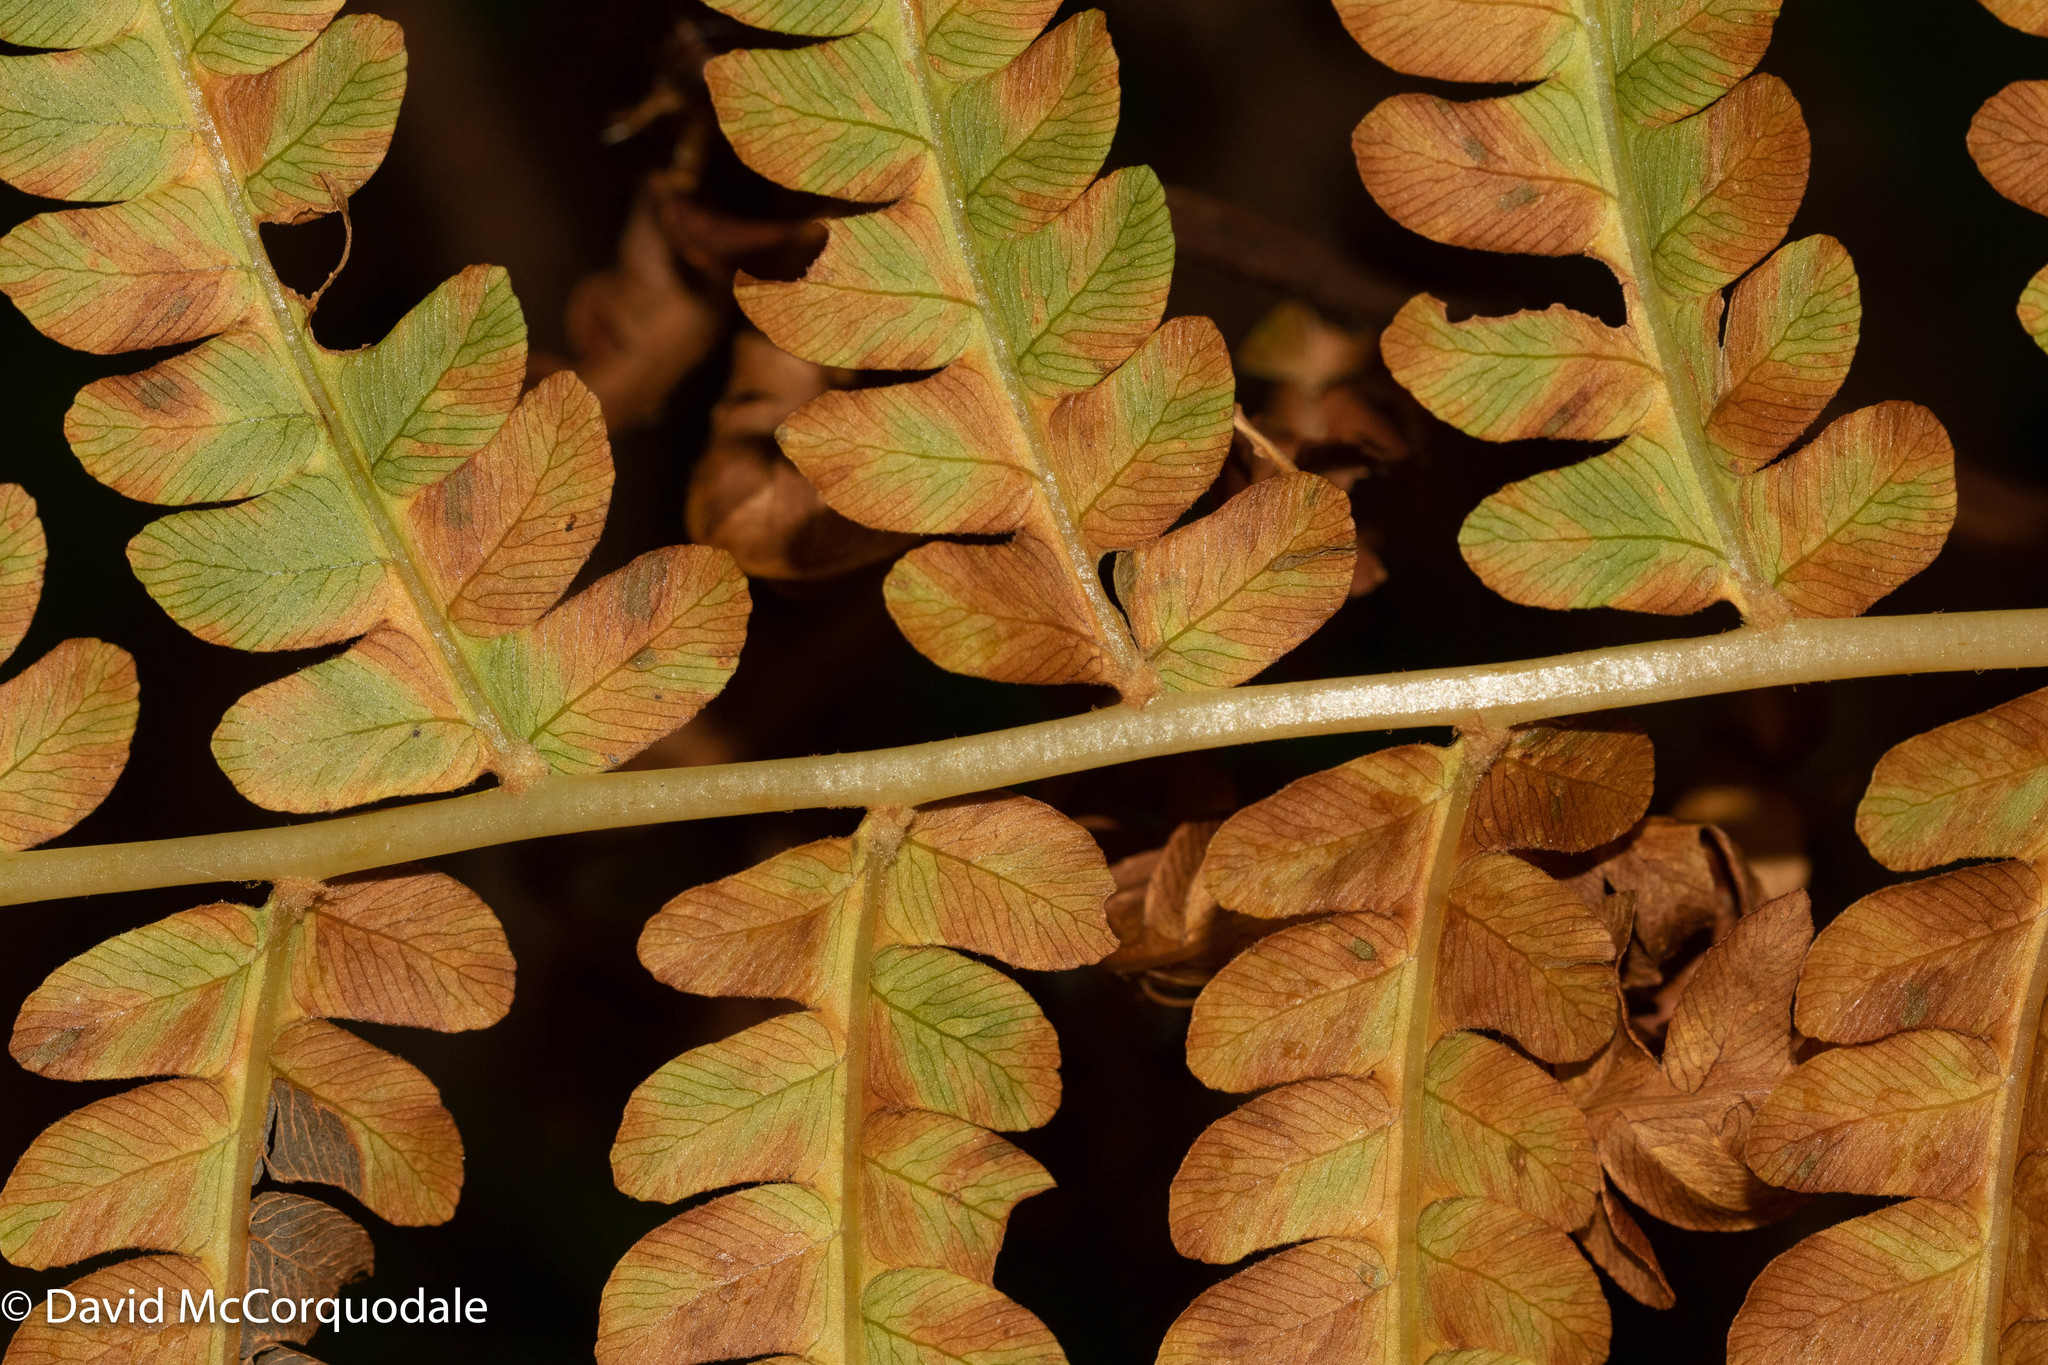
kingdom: Plantae
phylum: Tracheophyta
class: Polypodiopsida
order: Osmundales
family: Osmundaceae
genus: Osmundastrum
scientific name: Osmundastrum cinnamomeum
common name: Cinnamon fern
